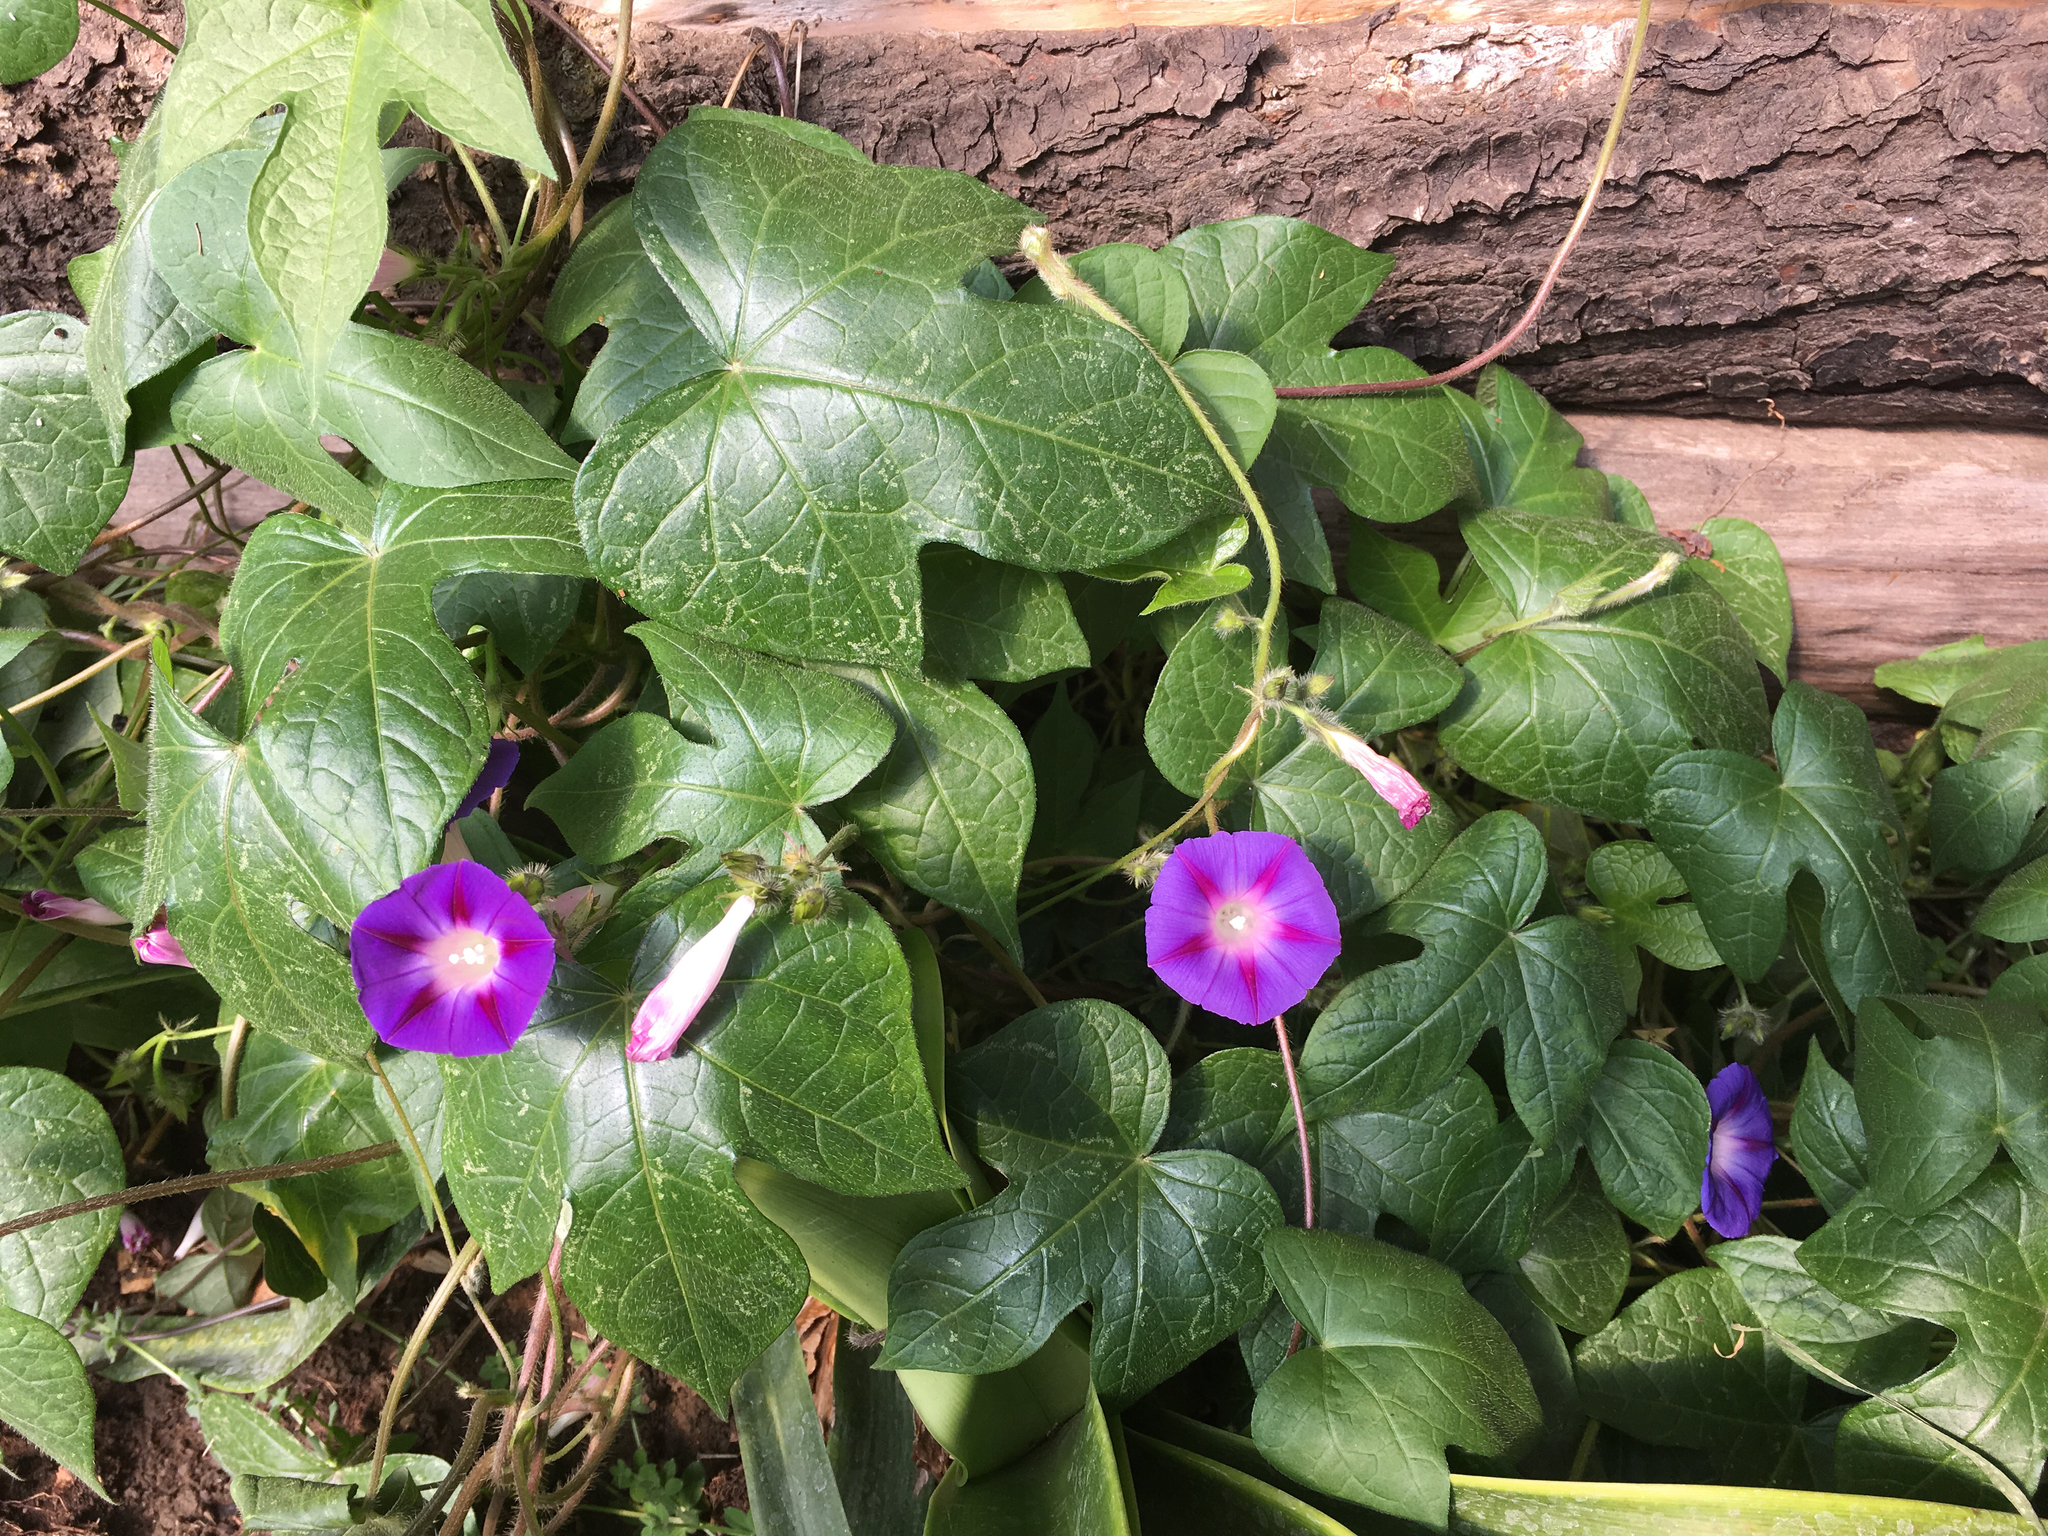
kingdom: Plantae
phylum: Tracheophyta
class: Magnoliopsida
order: Solanales
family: Convolvulaceae
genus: Ipomoea
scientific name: Ipomoea purpurea
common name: Common morning-glory
